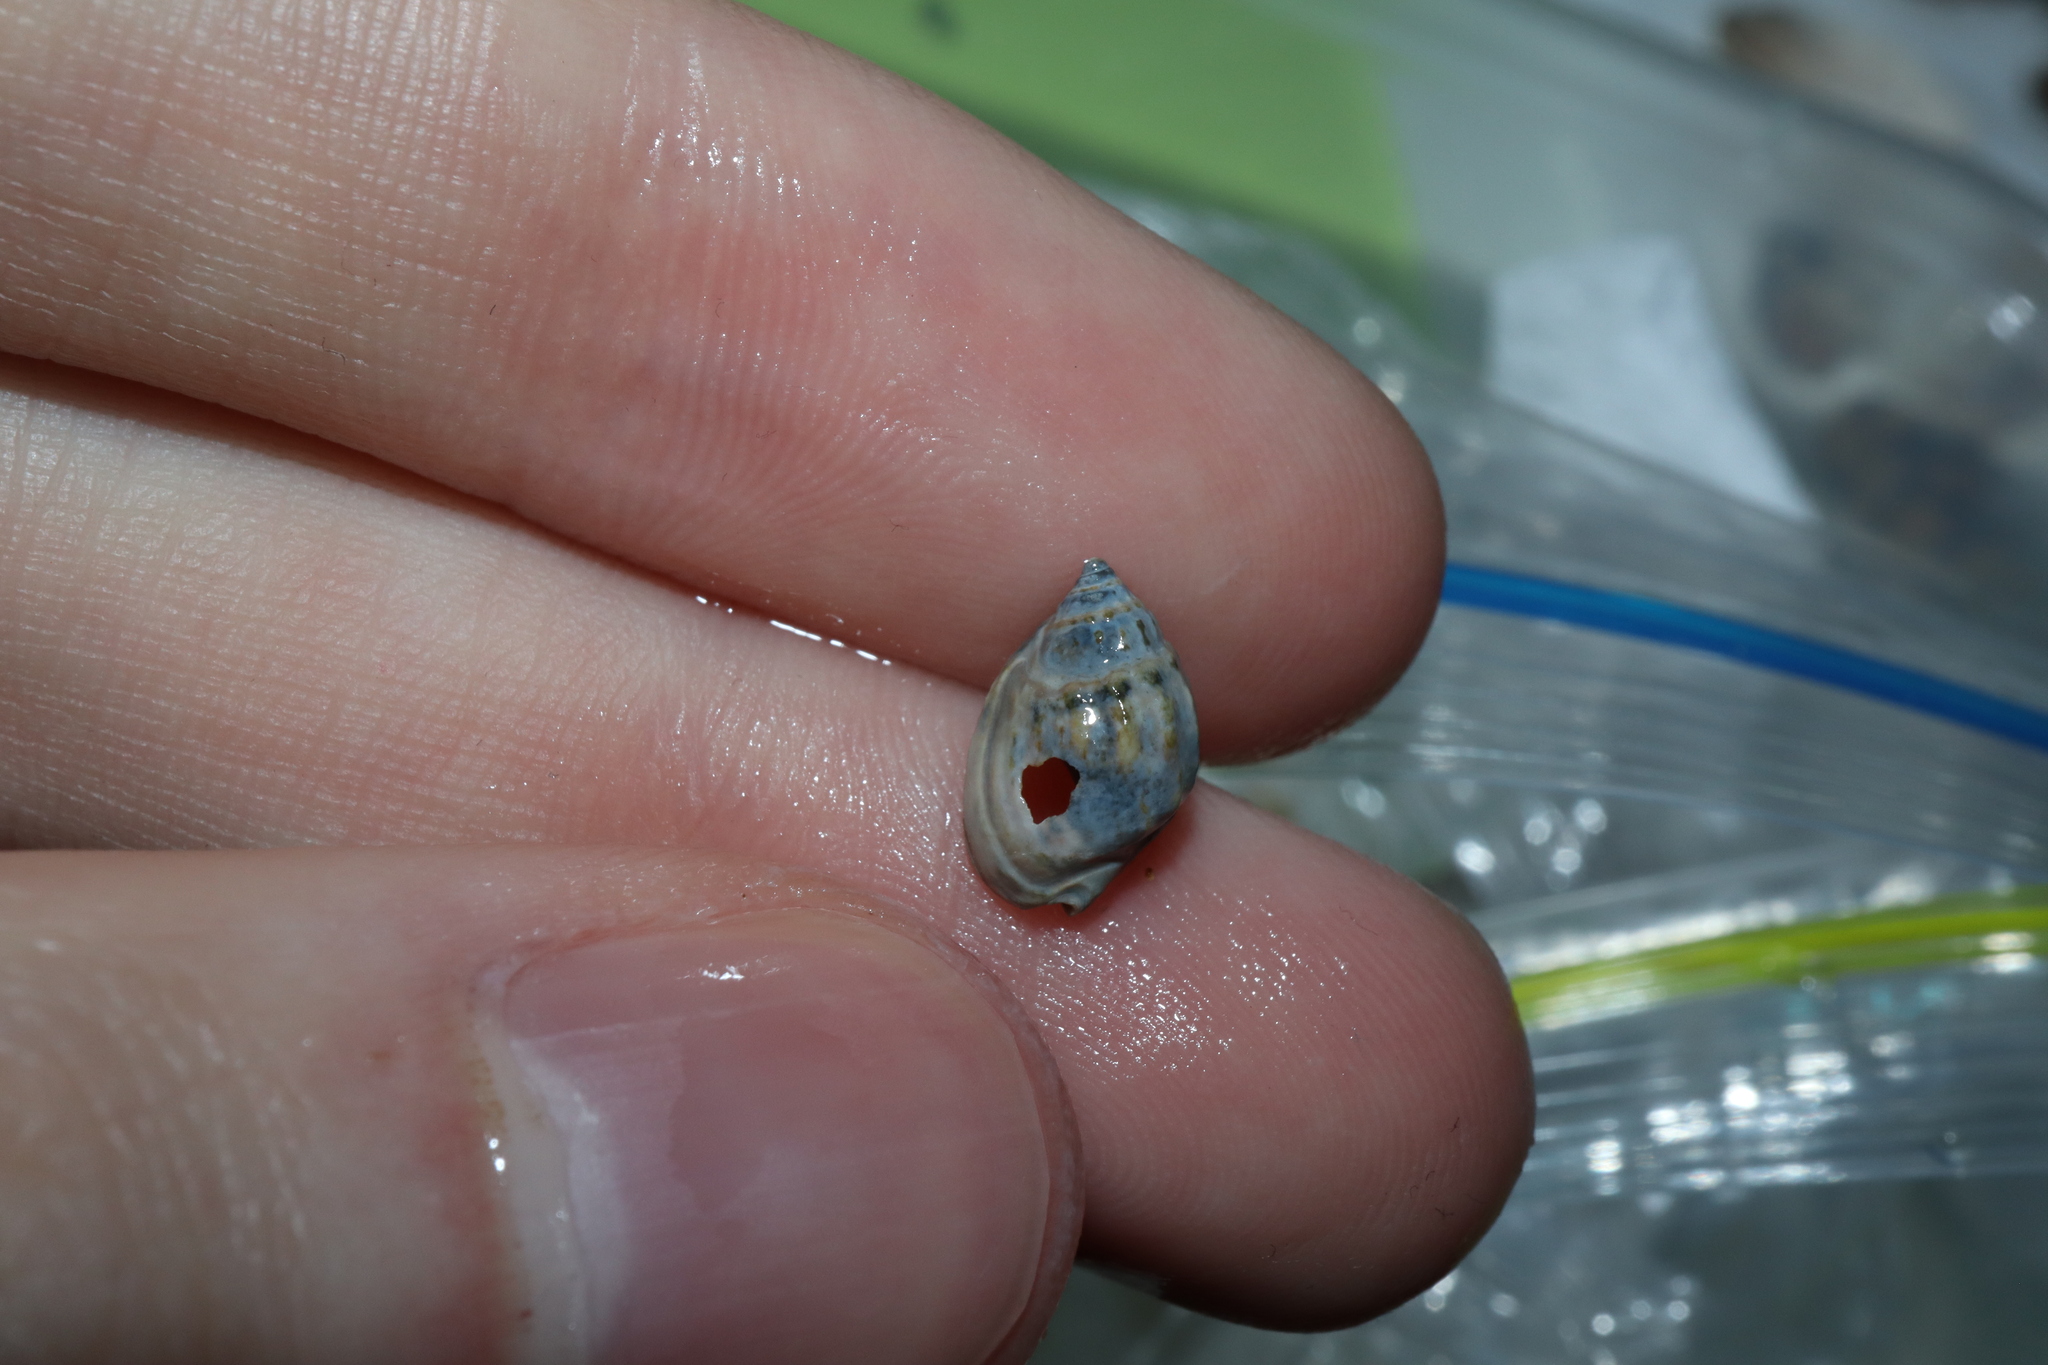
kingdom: Animalia
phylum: Mollusca
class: Gastropoda
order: Neogastropoda
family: Nassariidae
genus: Nassarius
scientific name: Nassarius jonasii
